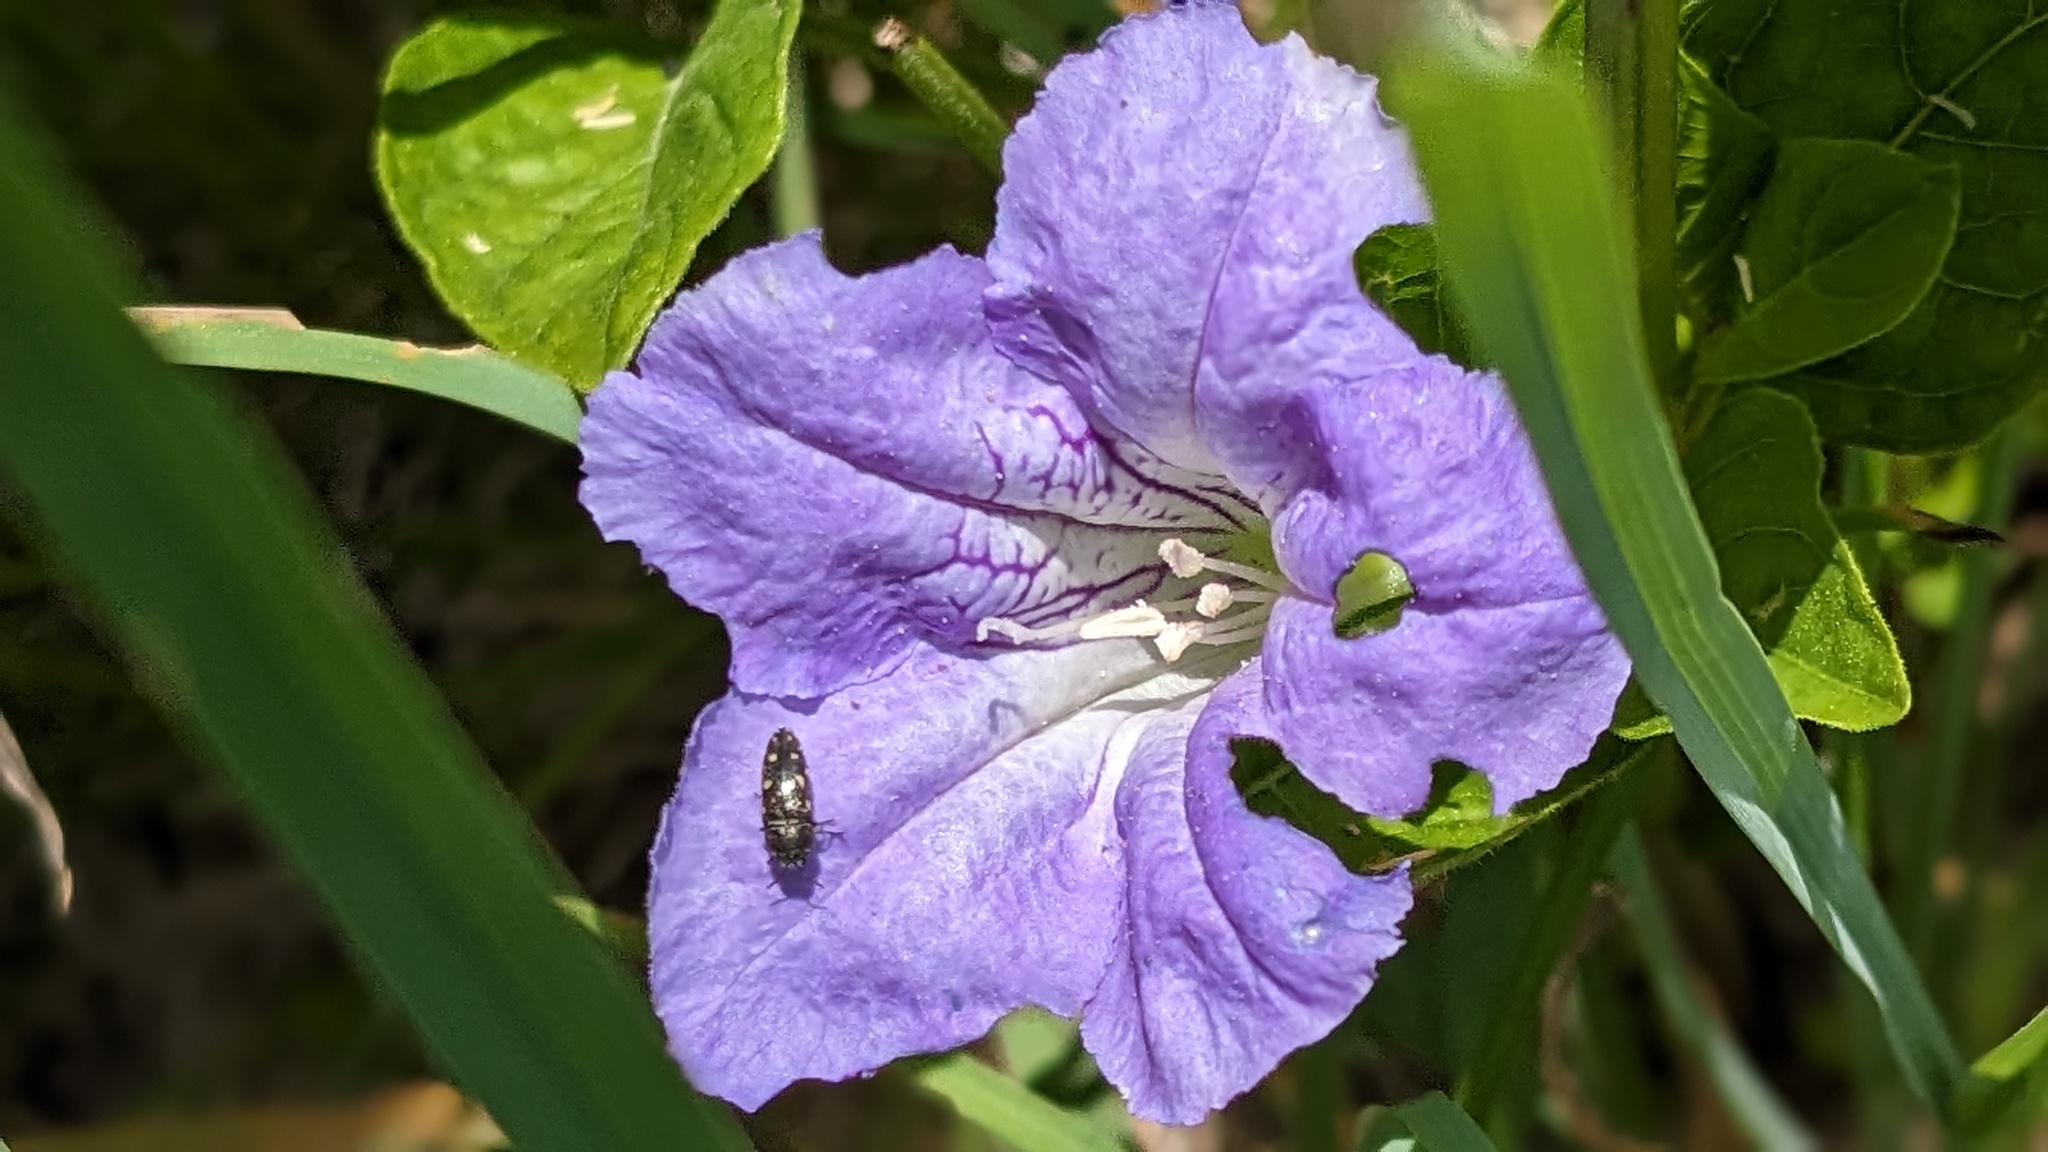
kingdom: Plantae
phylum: Tracheophyta
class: Magnoliopsida
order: Lamiales
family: Acanthaceae
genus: Ruellia
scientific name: Ruellia strepens
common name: Limestone wild petunia
